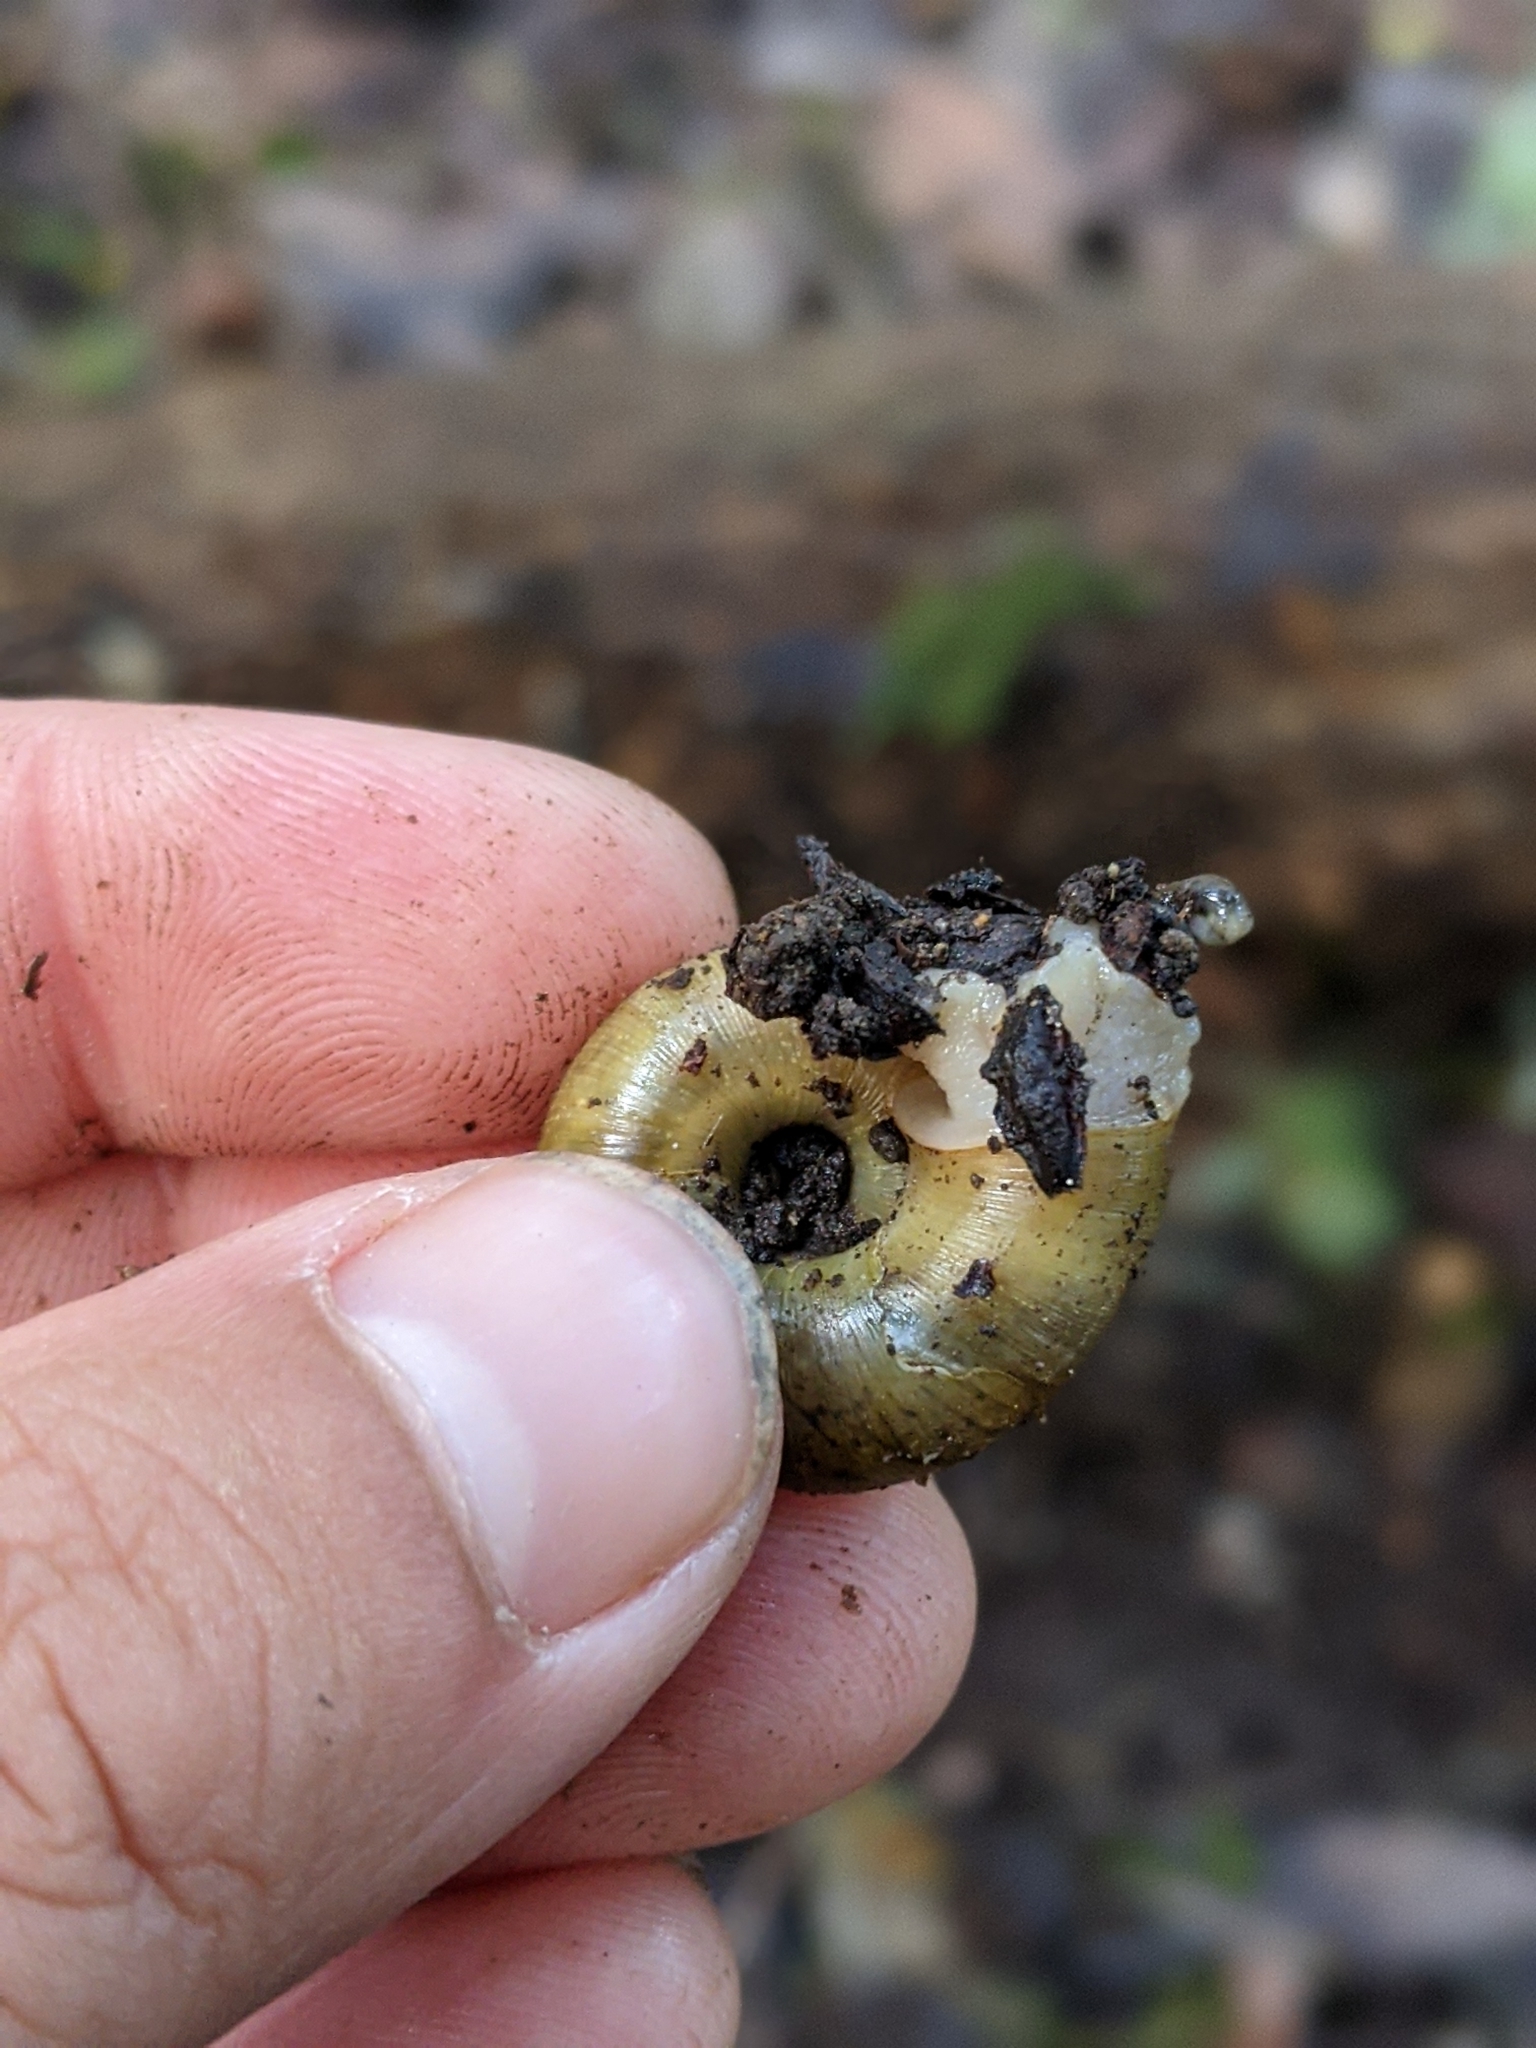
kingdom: Animalia
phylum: Mollusca
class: Gastropoda
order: Stylommatophora
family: Haplotrematidae
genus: Haplotrema
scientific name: Haplotrema minimum
